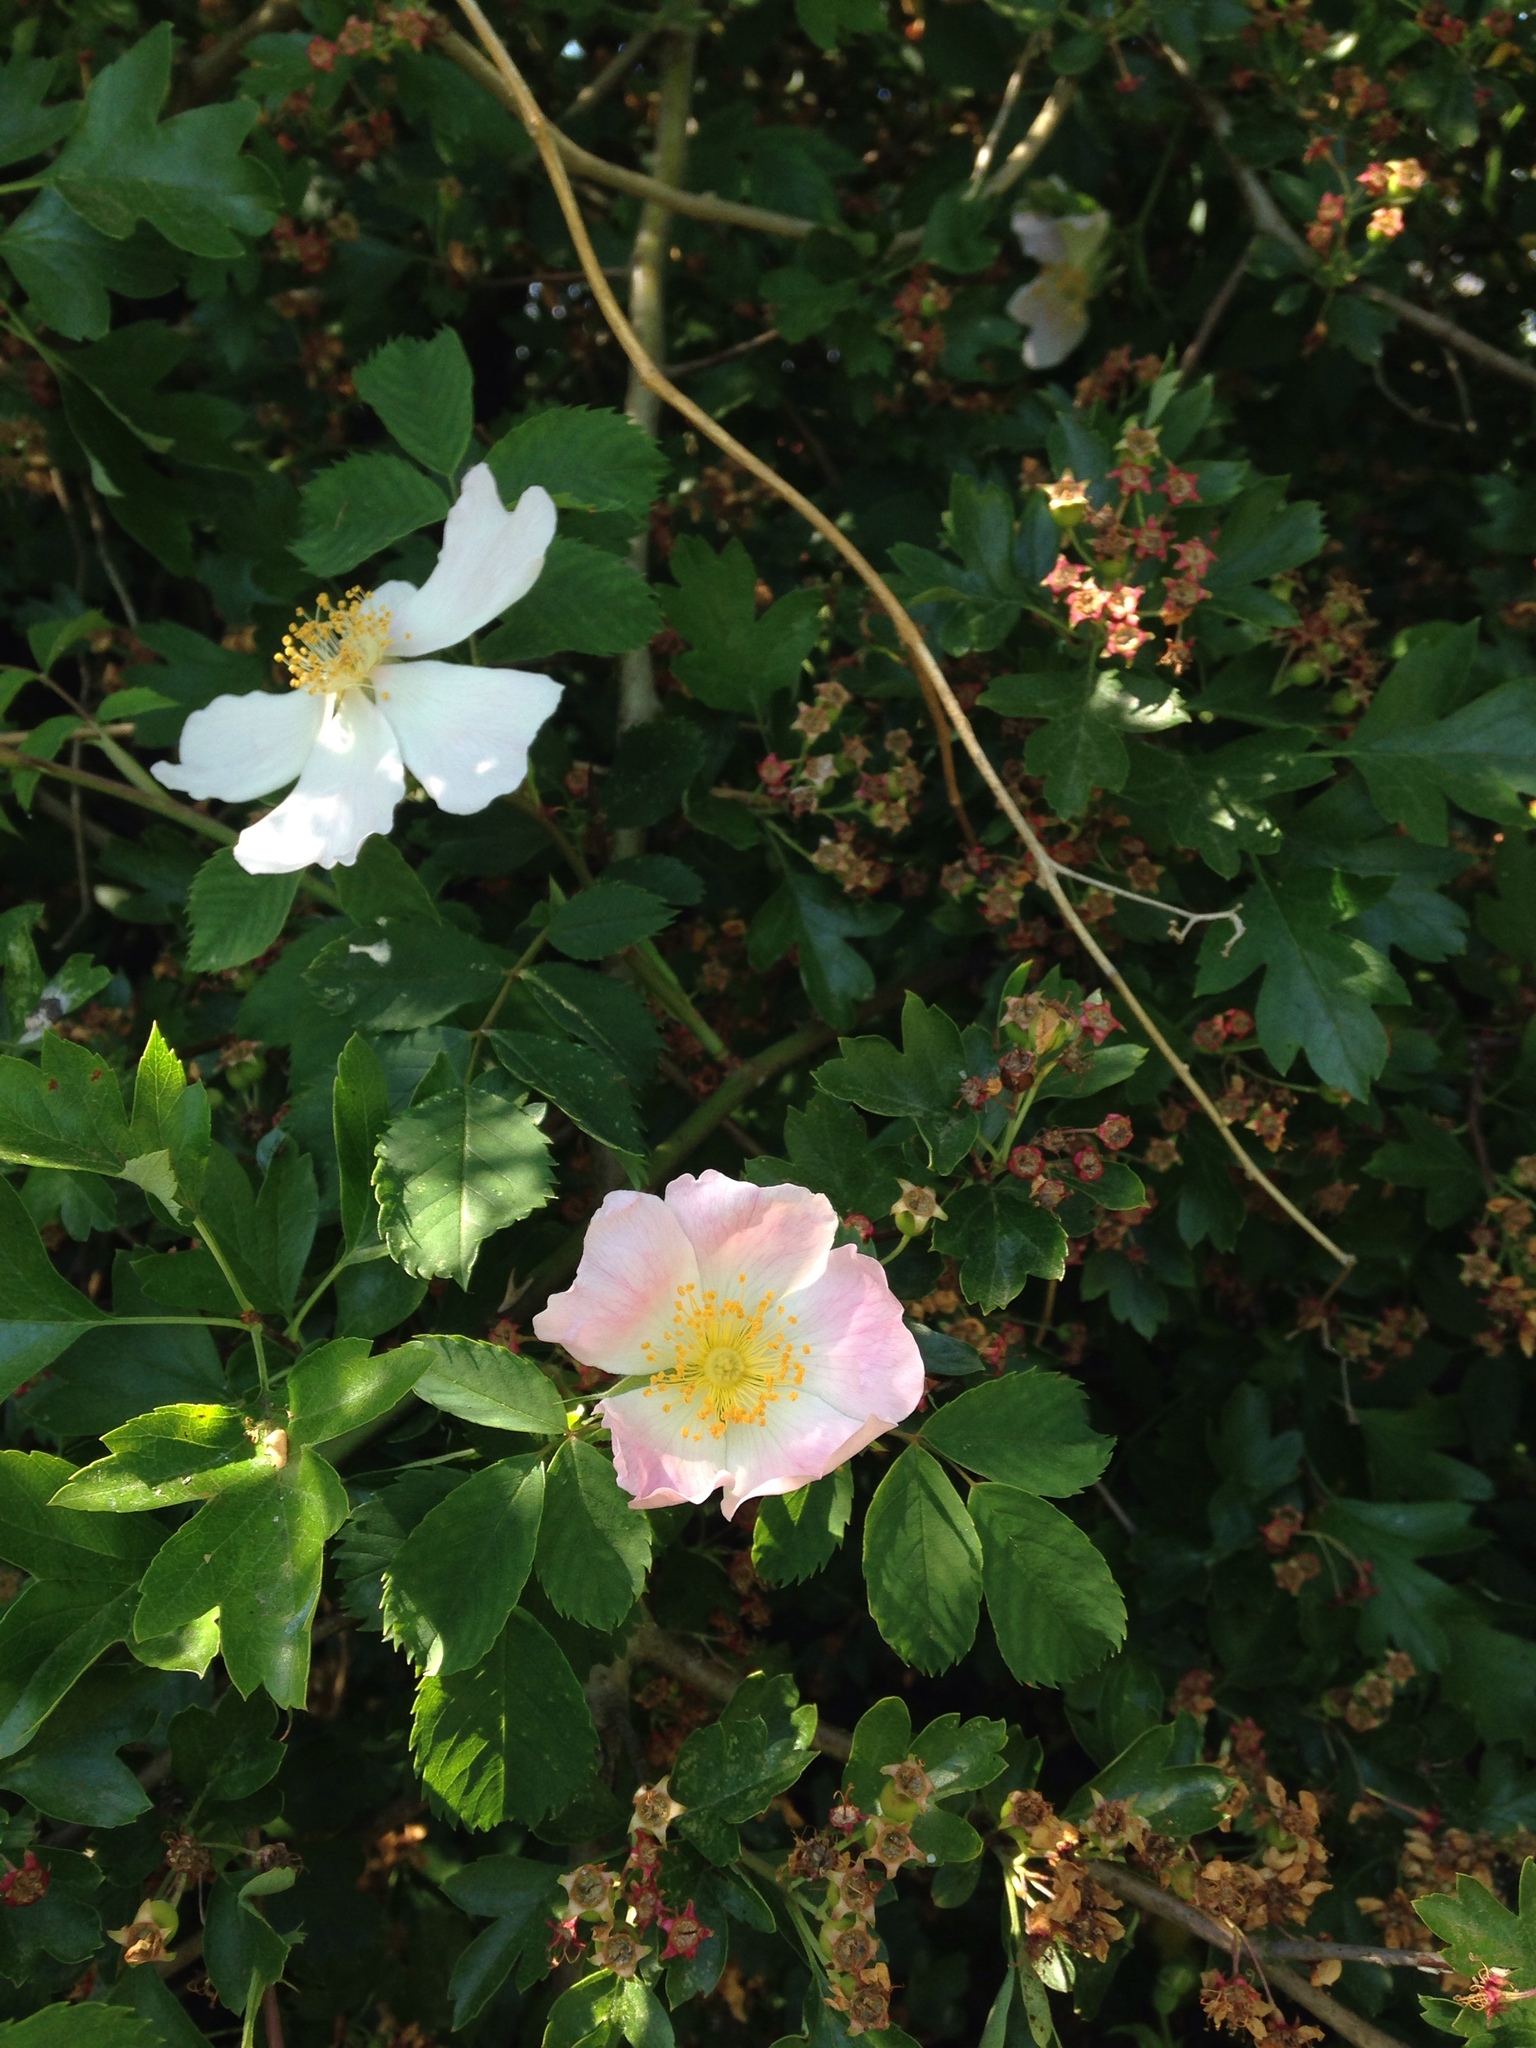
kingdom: Plantae
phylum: Tracheophyta
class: Magnoliopsida
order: Rosales
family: Rosaceae
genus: Rosa
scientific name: Rosa canina
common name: Dog rose
